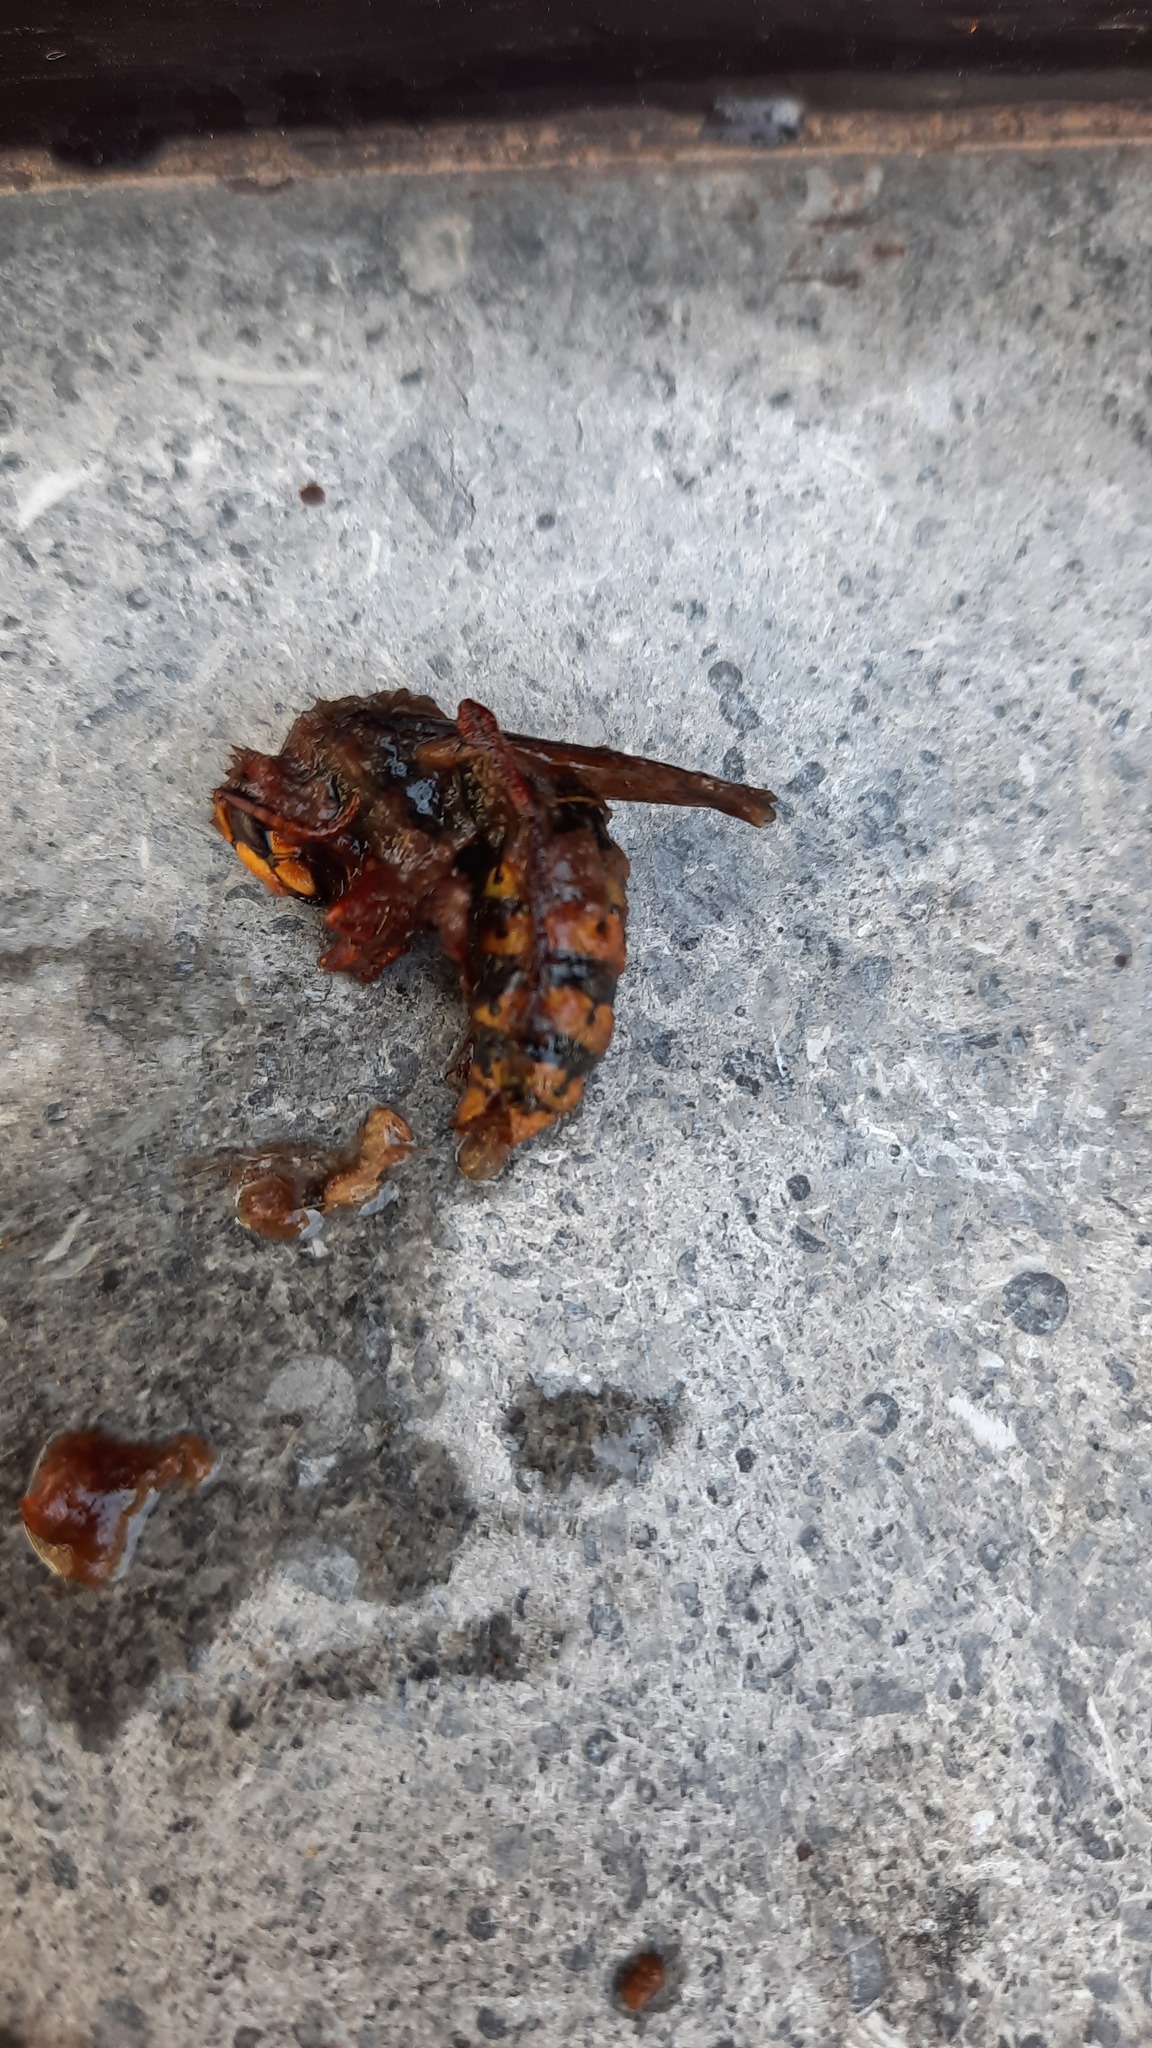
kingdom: Animalia
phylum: Arthropoda
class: Insecta
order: Hymenoptera
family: Vespidae
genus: Vespa
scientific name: Vespa crabro
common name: Hornet
